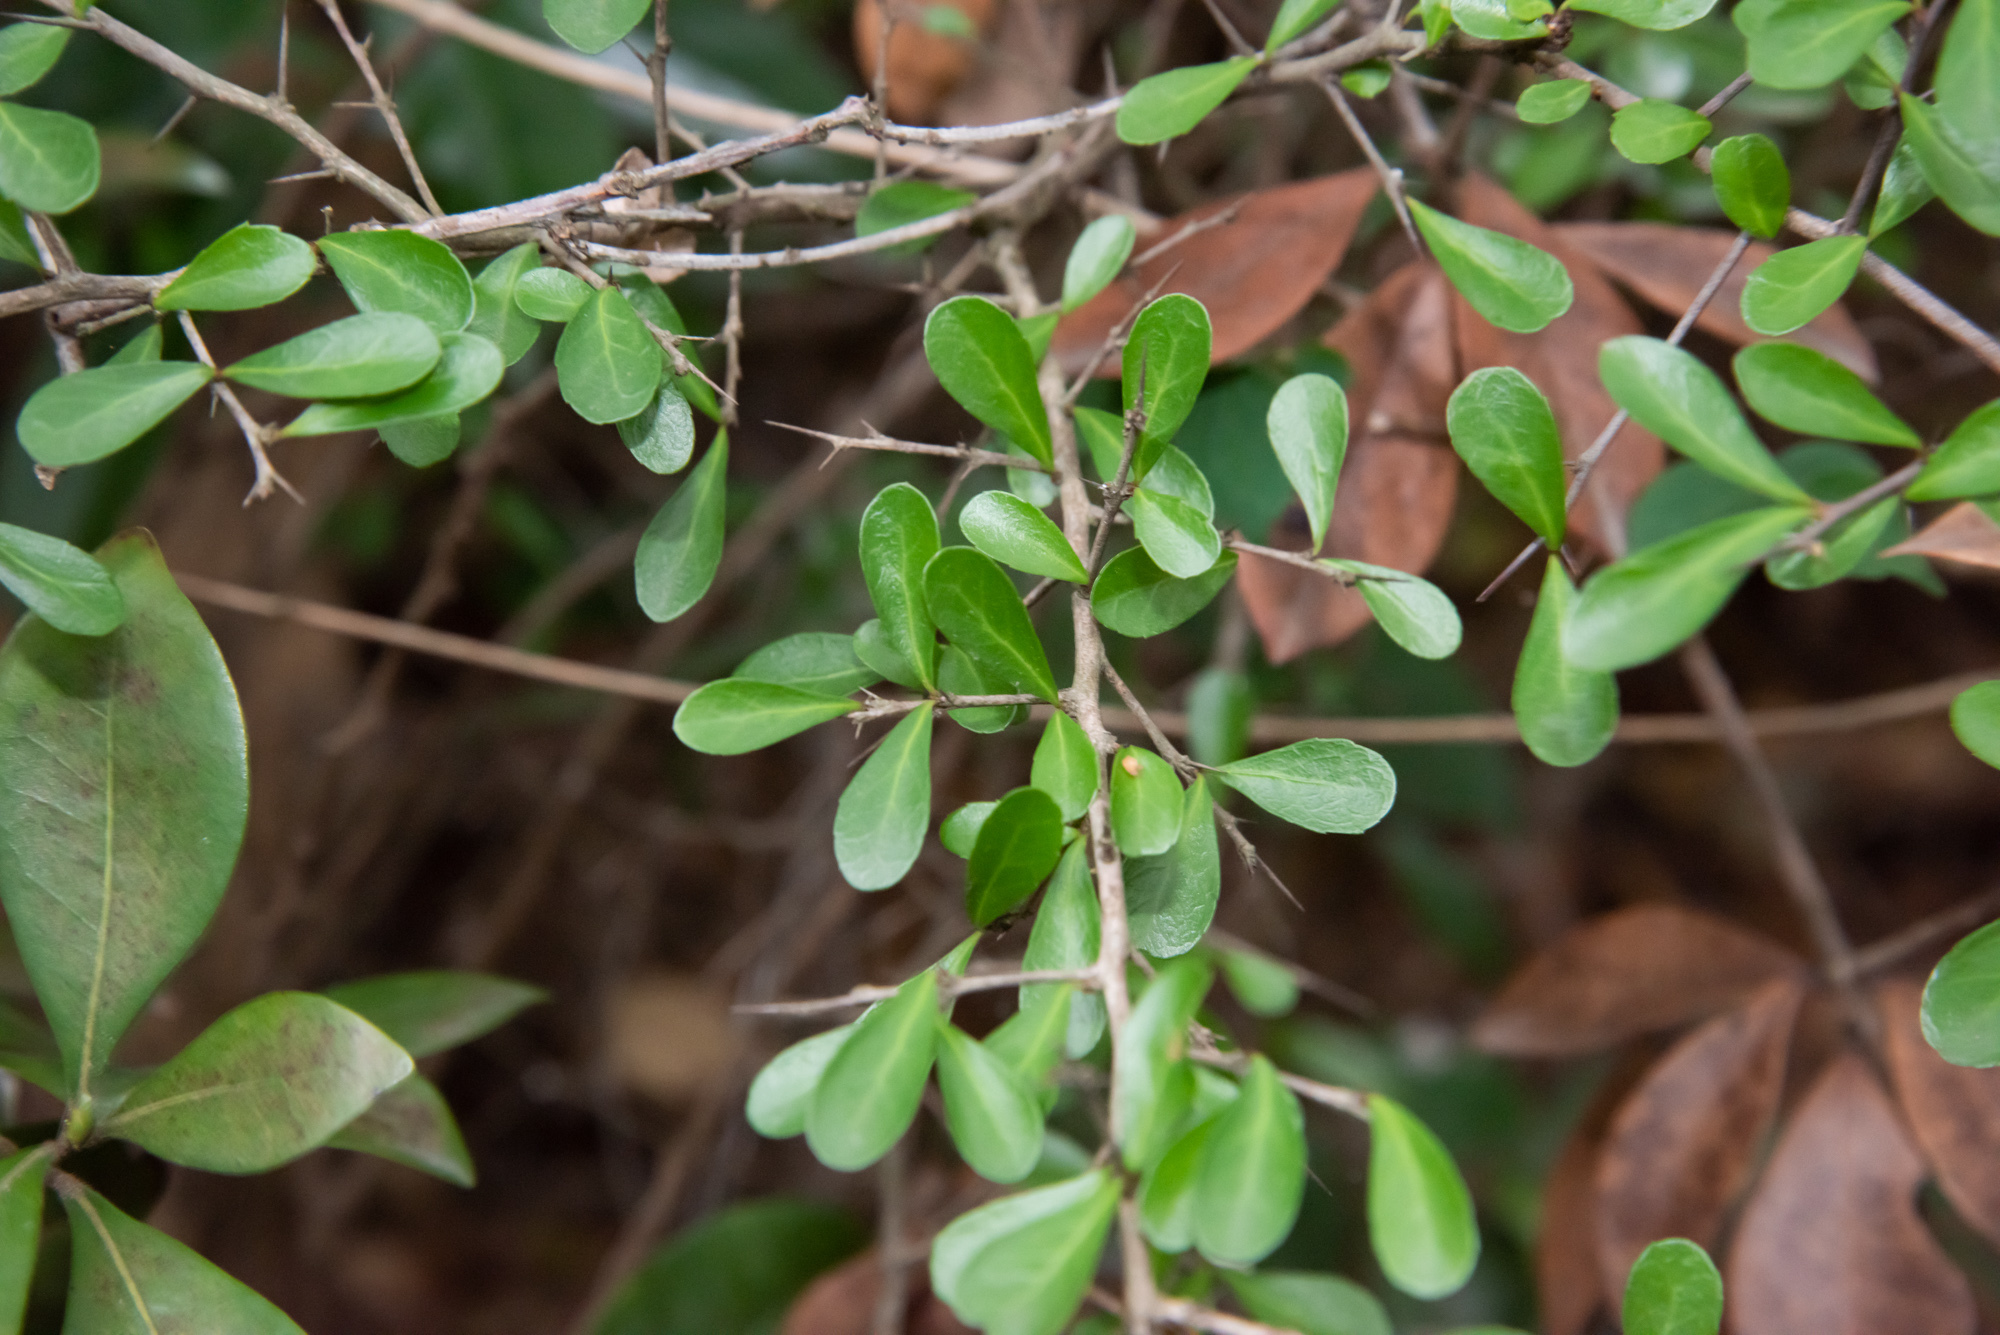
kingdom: Plantae
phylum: Tracheophyta
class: Magnoliopsida
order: Celastrales
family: Celastraceae
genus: Gymnosporia
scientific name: Gymnosporia diversifolia
